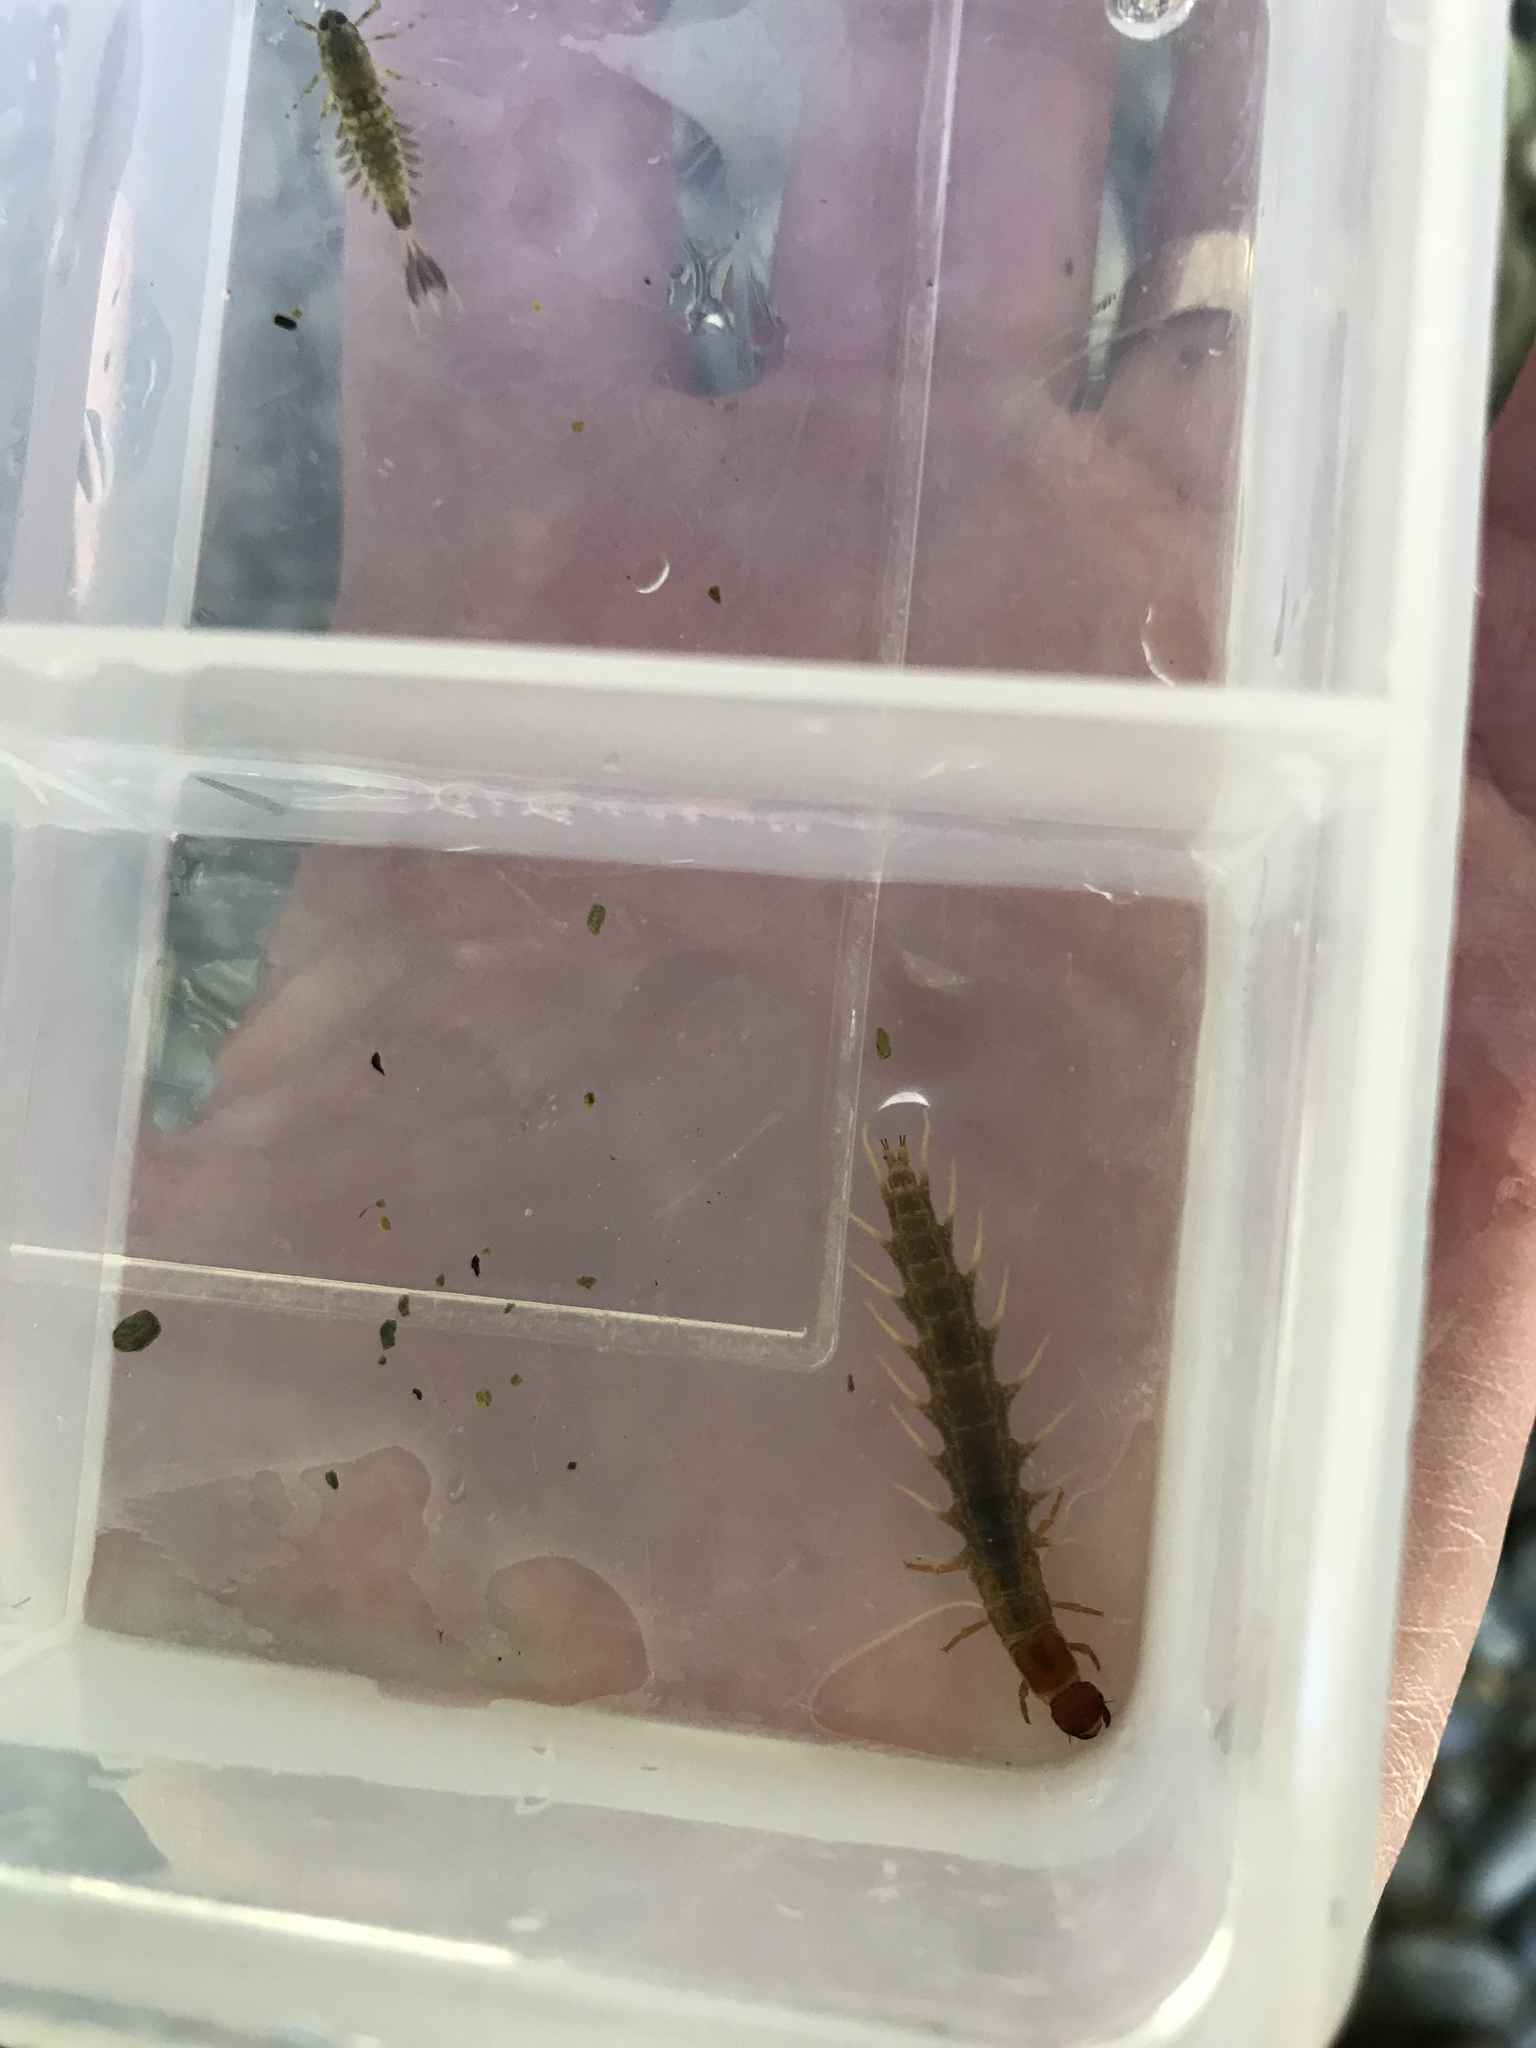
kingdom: Animalia
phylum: Arthropoda
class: Insecta
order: Megaloptera
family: Corydalidae
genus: Archichauliodes
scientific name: Archichauliodes diversus
